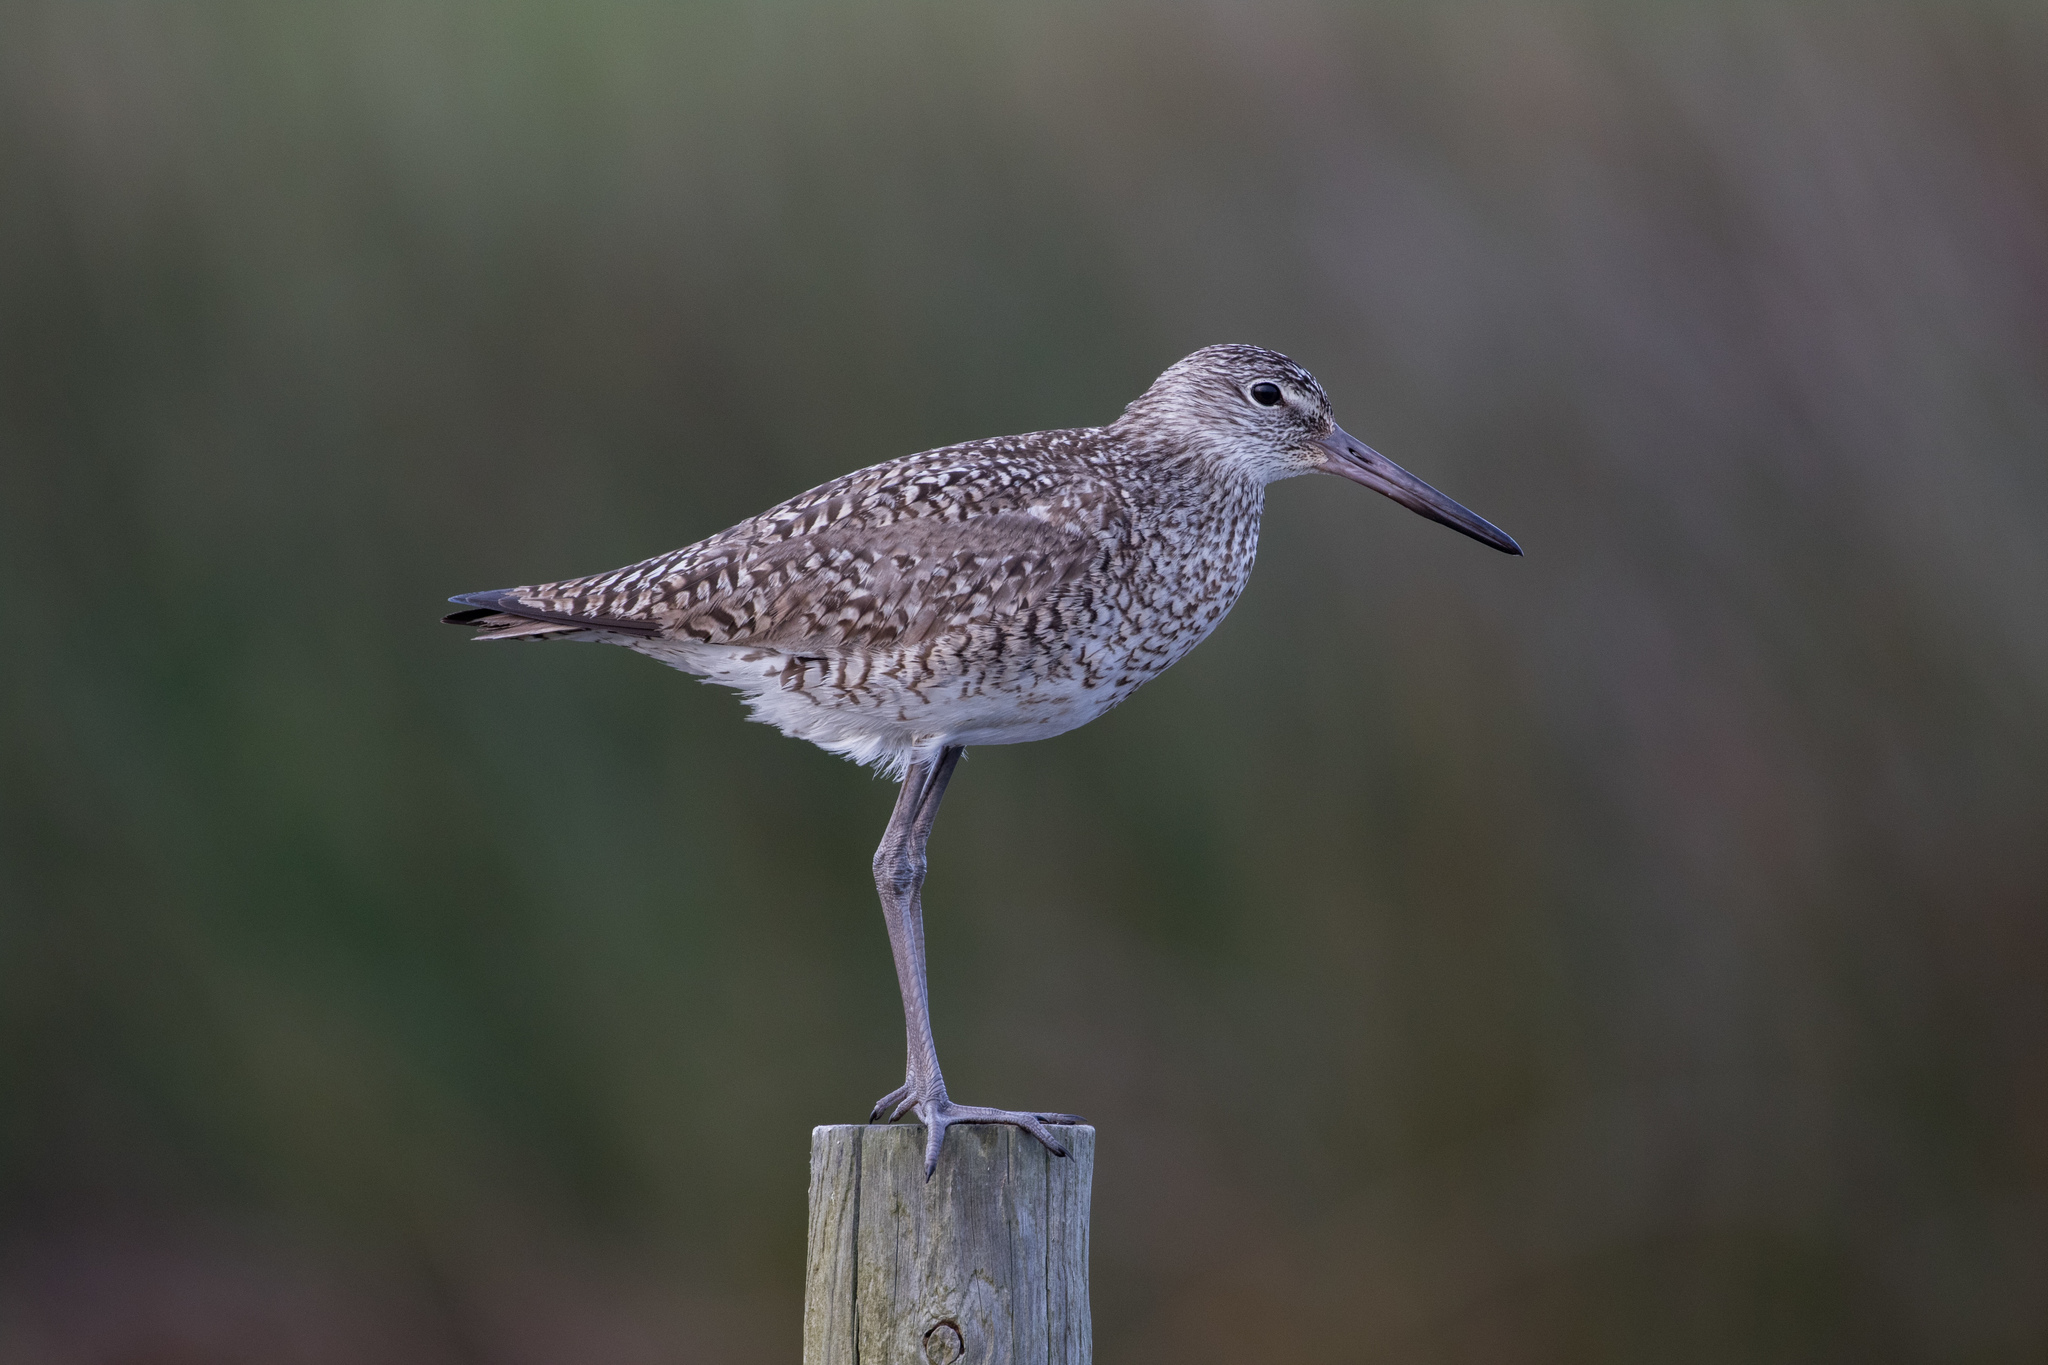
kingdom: Animalia
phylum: Chordata
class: Aves
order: Charadriiformes
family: Scolopacidae
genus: Tringa
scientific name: Tringa semipalmata
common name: Willet
